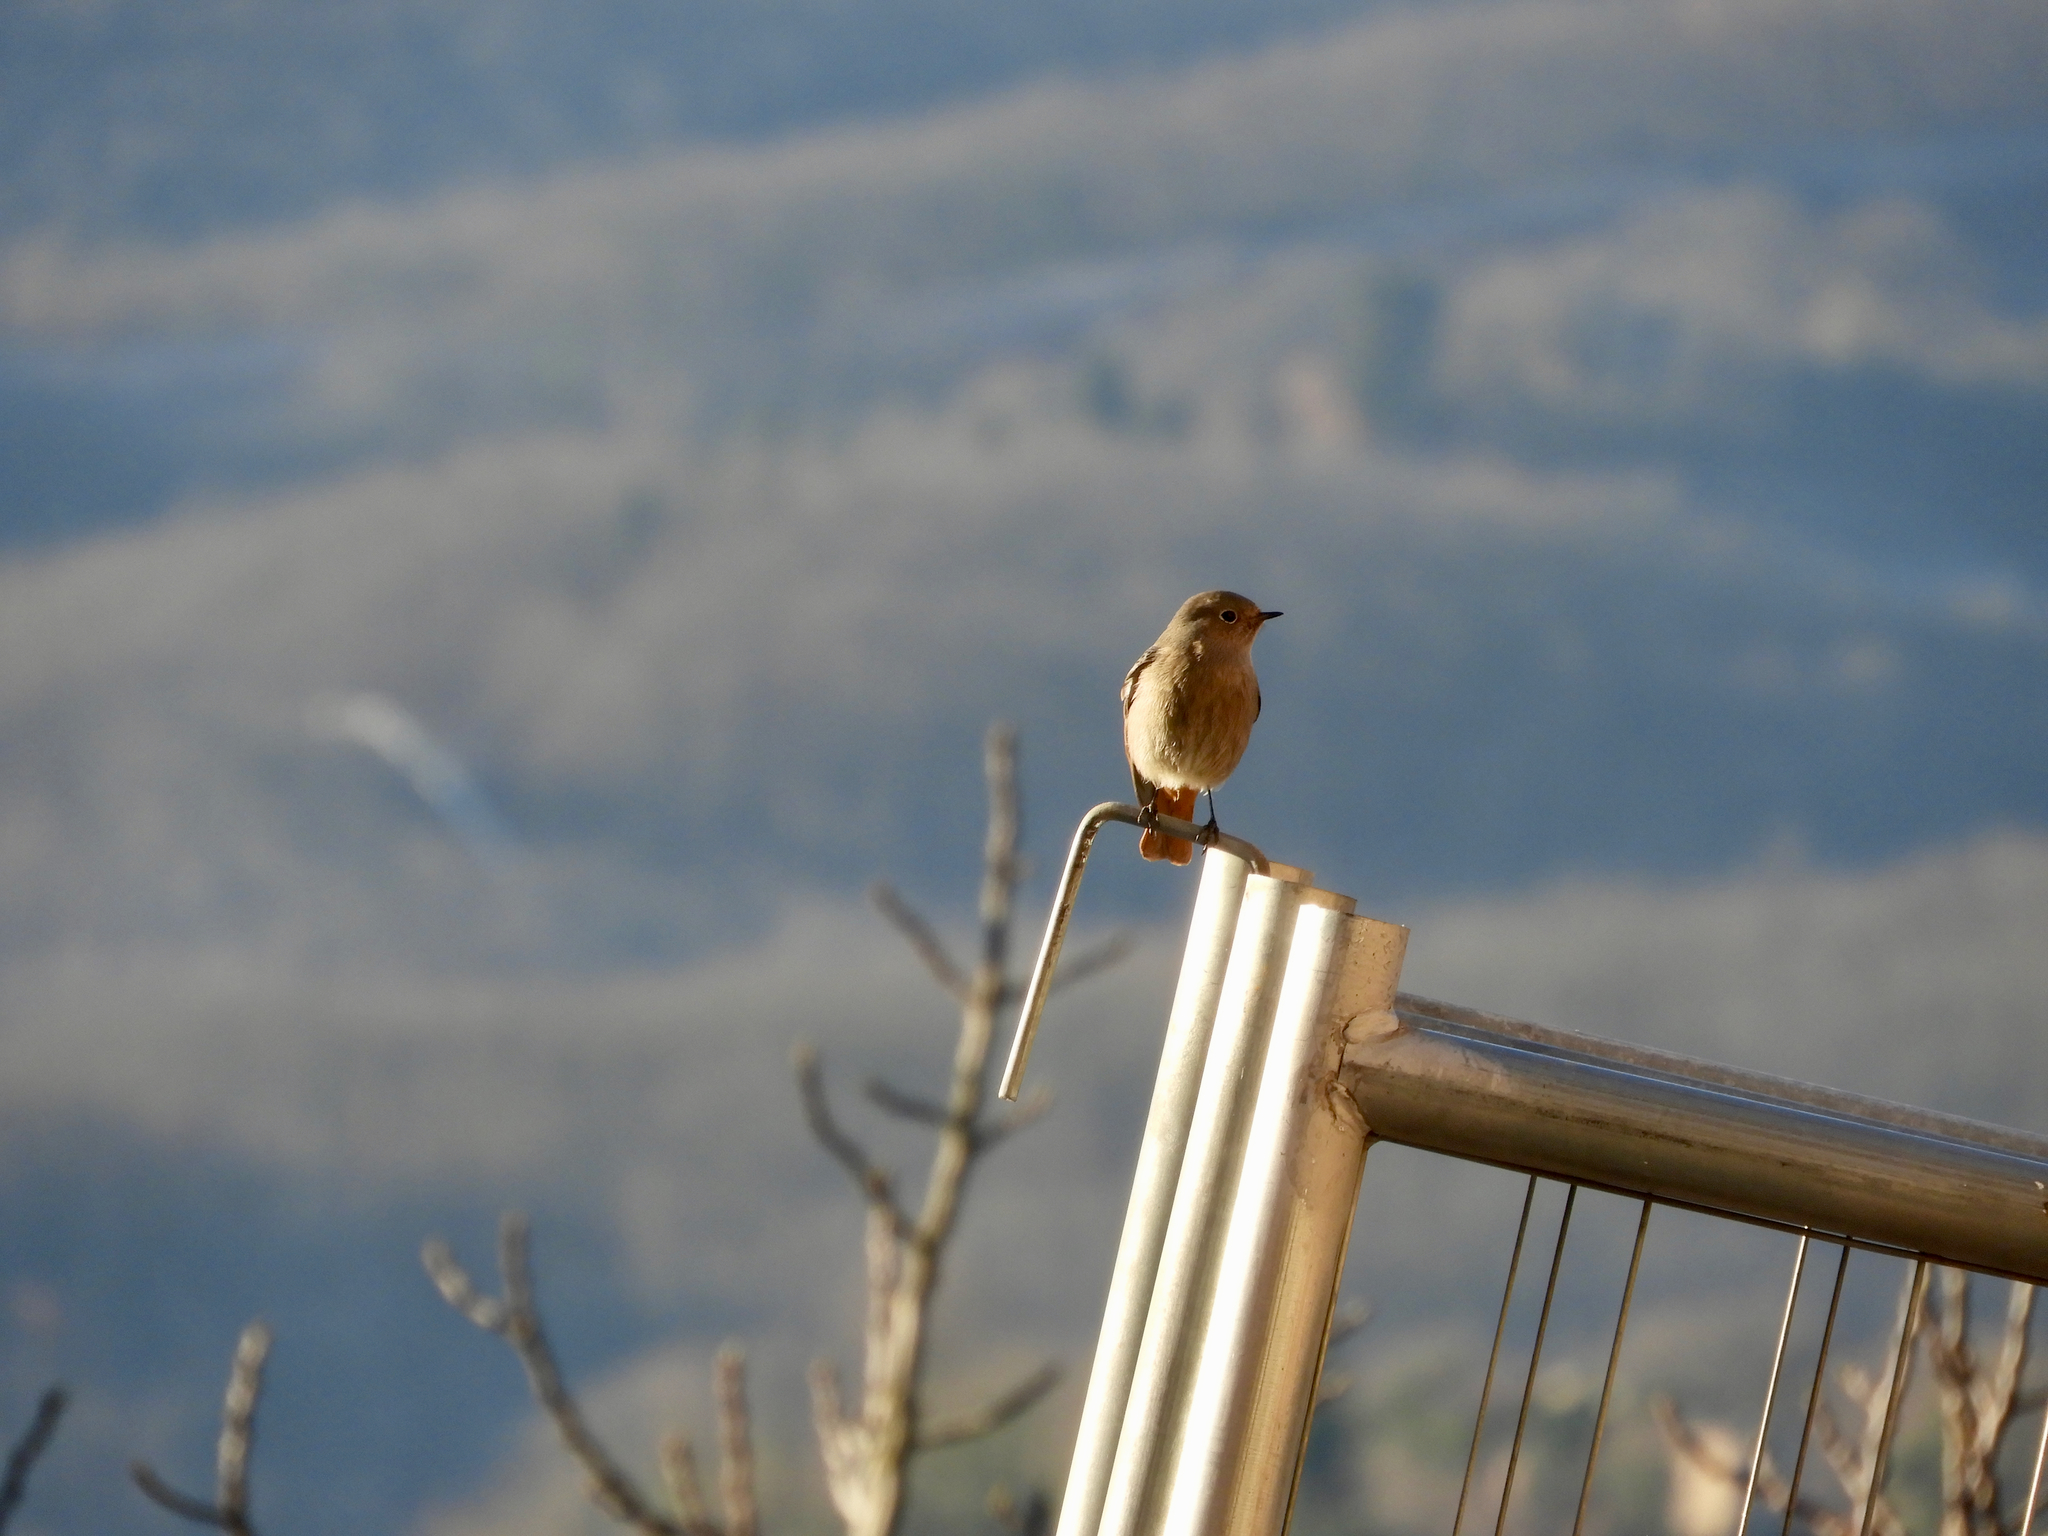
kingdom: Animalia
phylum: Chordata
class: Aves
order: Passeriformes
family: Muscicapidae
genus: Phoenicurus
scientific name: Phoenicurus ochruros
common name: Black redstart
